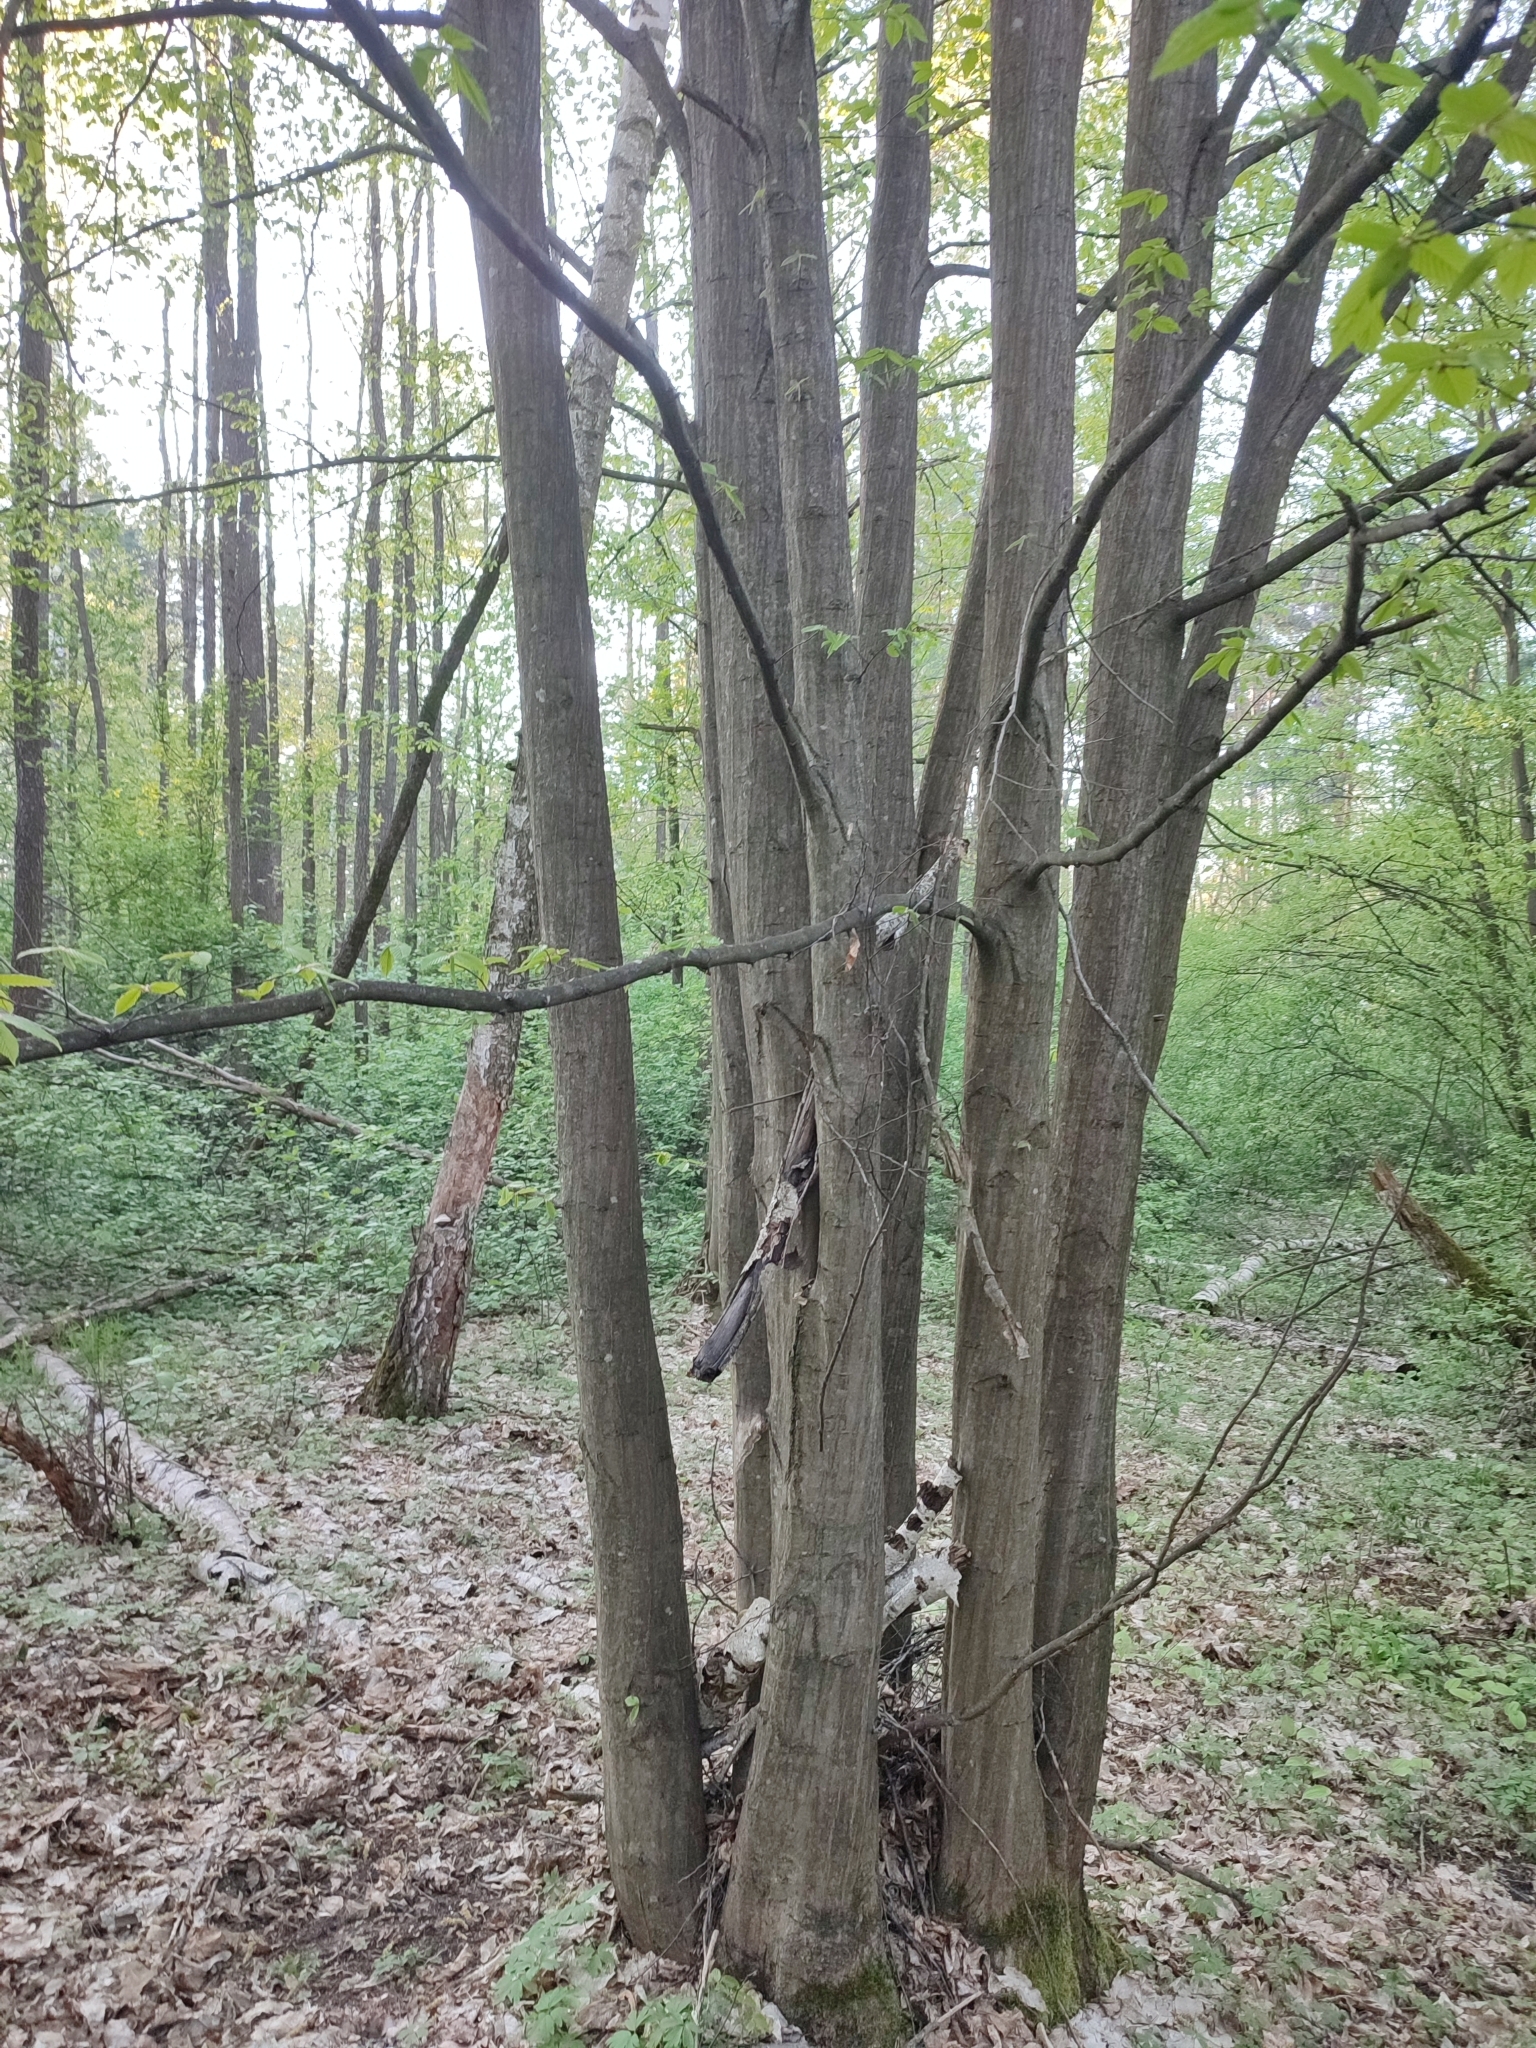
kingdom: Plantae
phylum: Tracheophyta
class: Magnoliopsida
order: Fagales
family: Betulaceae
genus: Carpinus
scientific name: Carpinus betulus
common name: Hornbeam
